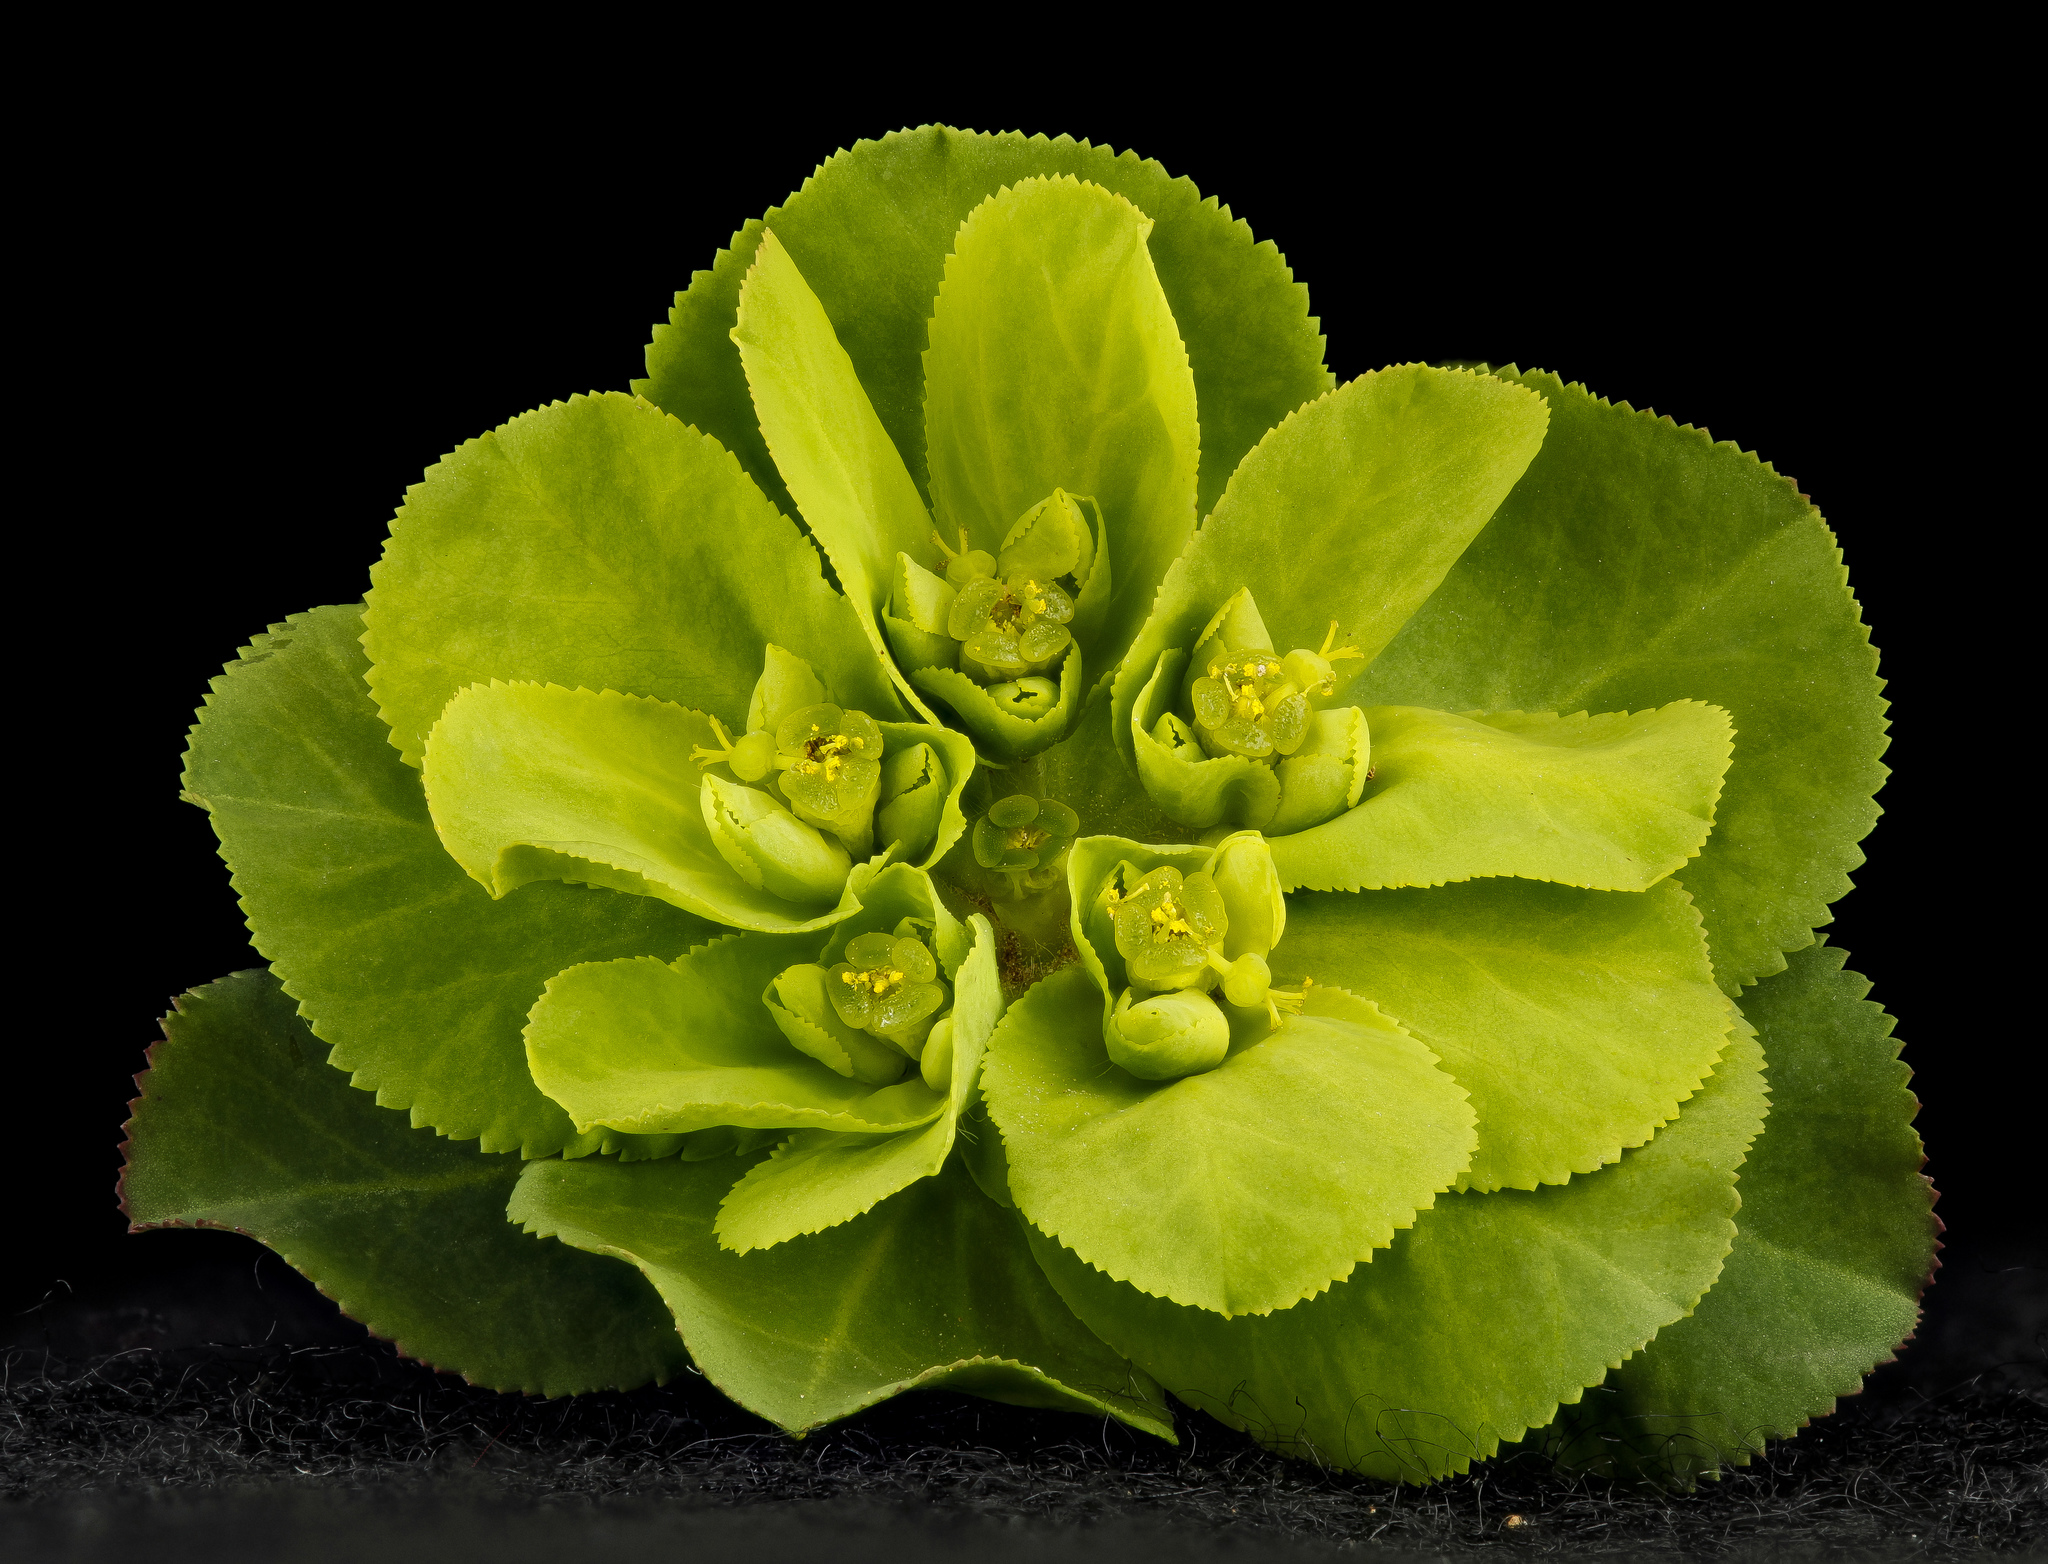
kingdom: Plantae
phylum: Tracheophyta
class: Magnoliopsida
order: Malpighiales
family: Euphorbiaceae
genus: Euphorbia
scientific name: Euphorbia helioscopia
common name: Sun spurge
